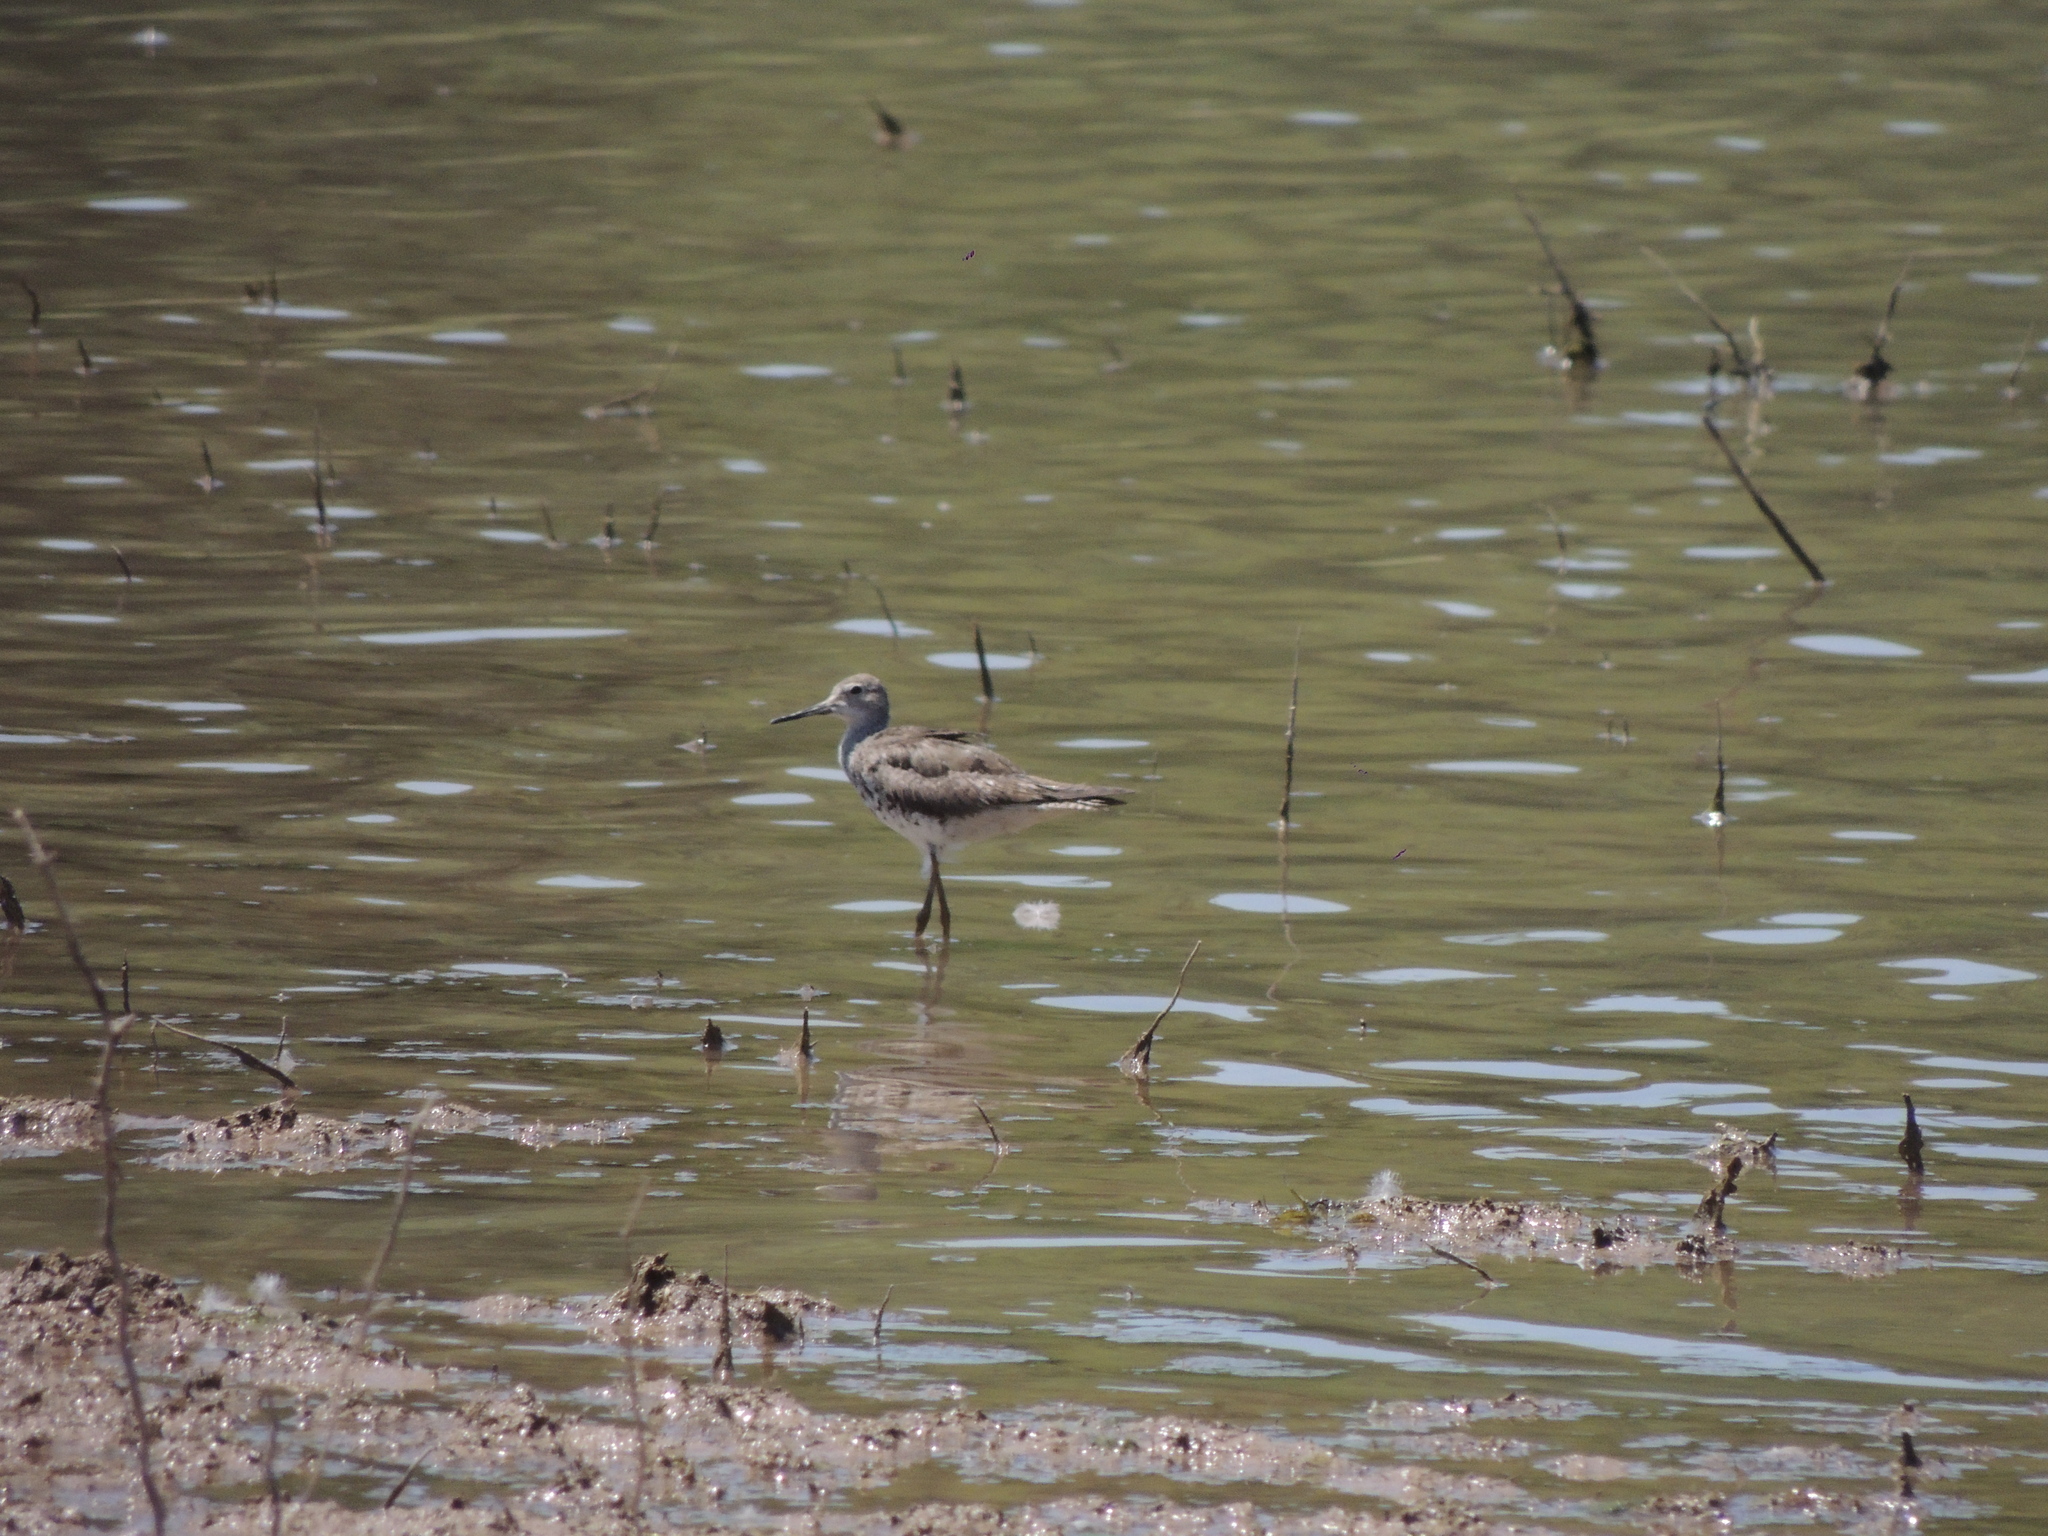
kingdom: Animalia
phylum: Chordata
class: Aves
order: Charadriiformes
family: Scolopacidae
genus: Tringa
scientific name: Tringa solitaria
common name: Solitary sandpiper
